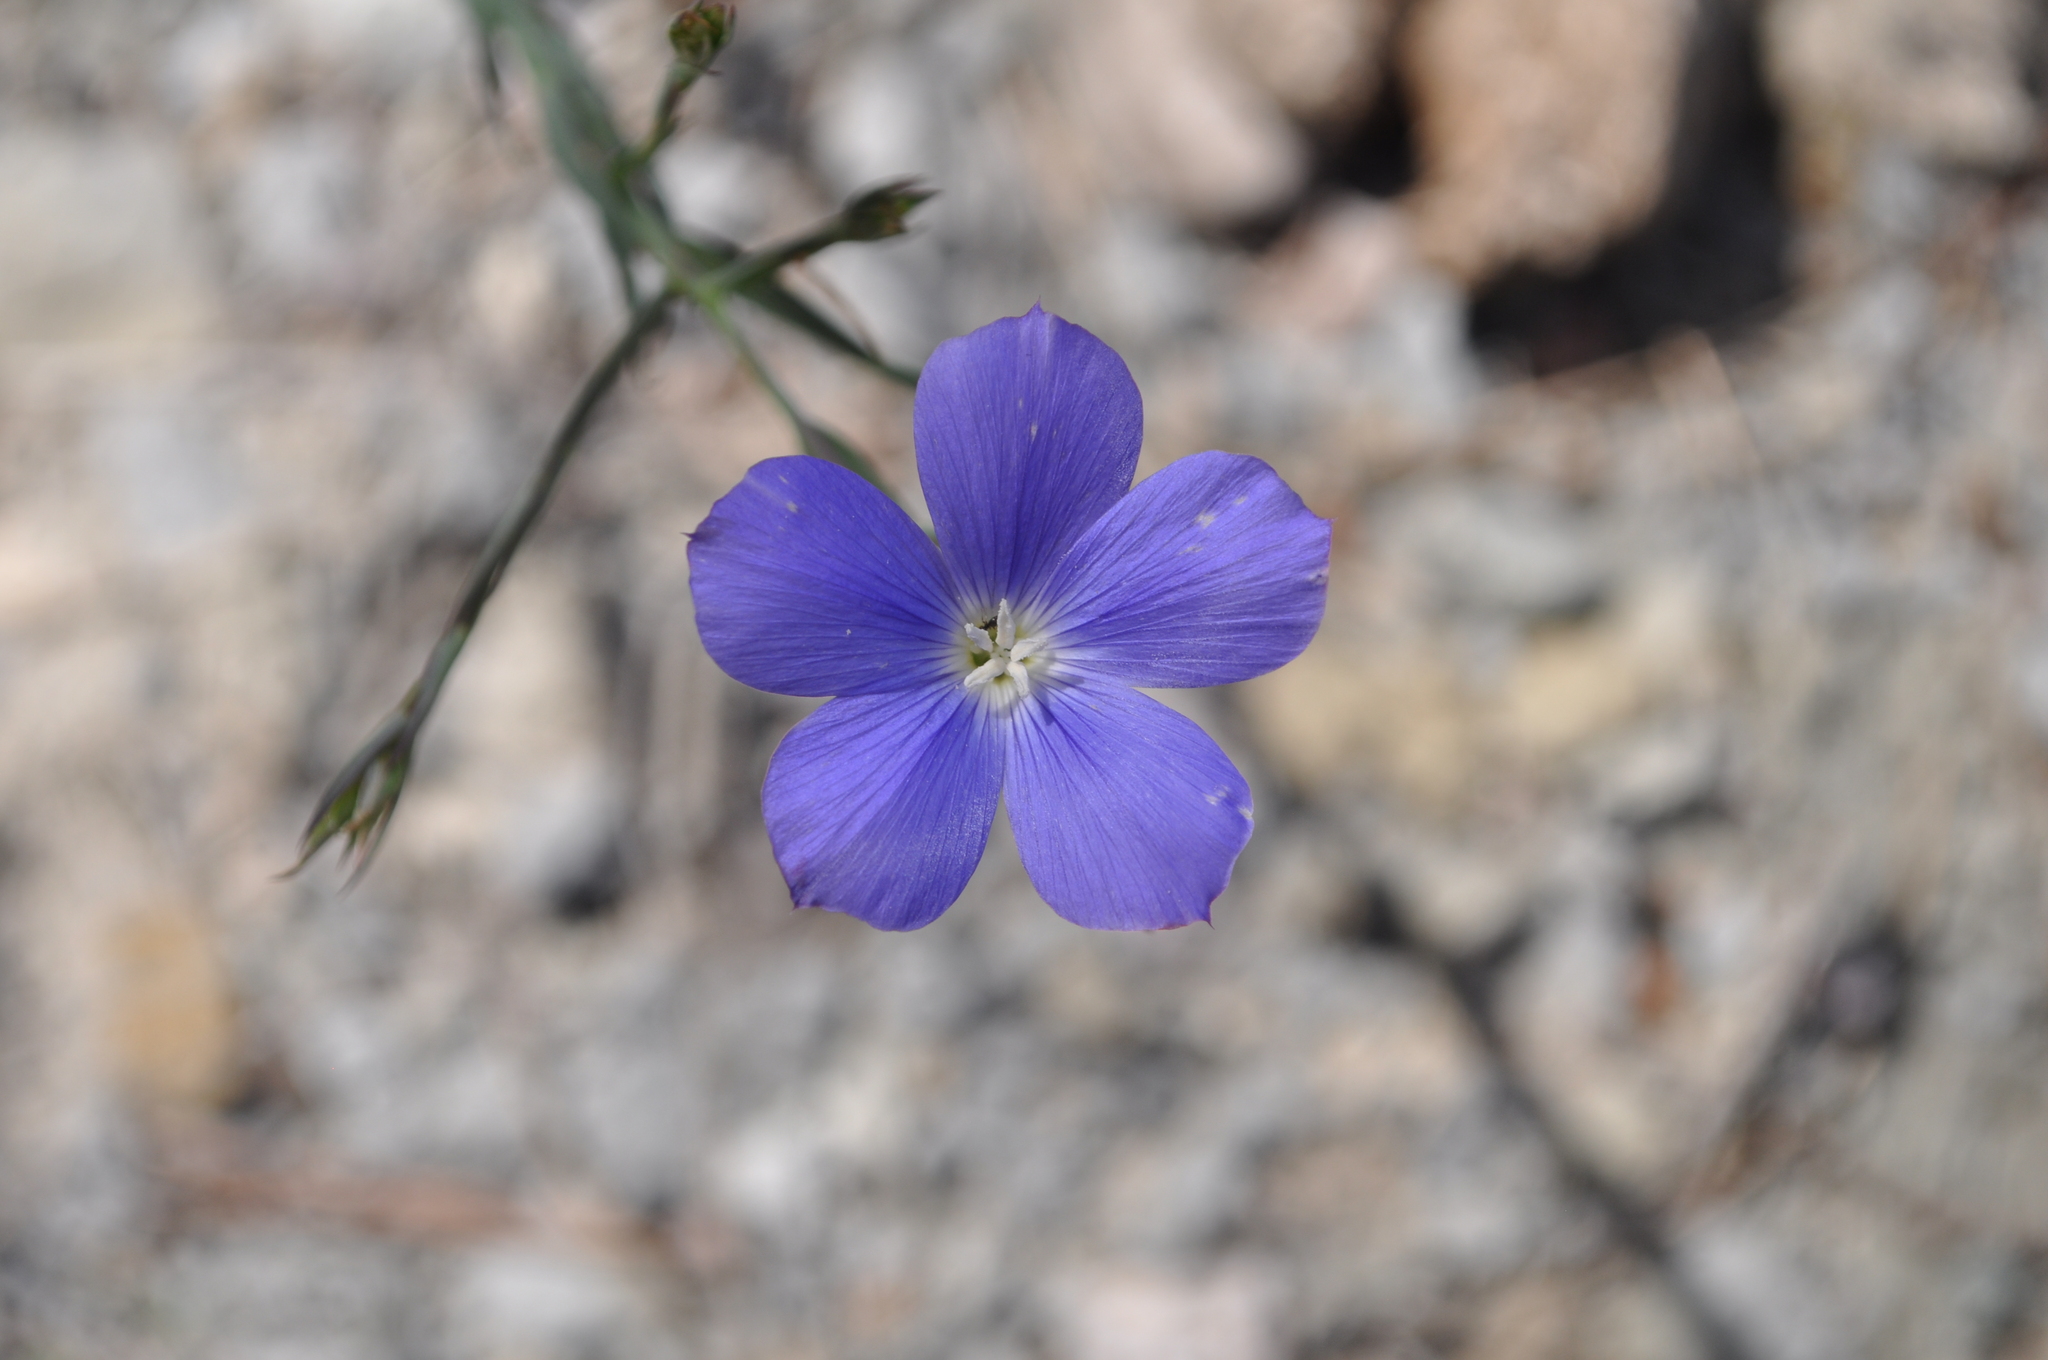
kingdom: Plantae
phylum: Tracheophyta
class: Magnoliopsida
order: Malpighiales
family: Linaceae
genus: Linum
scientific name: Linum narbonense
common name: Flax
